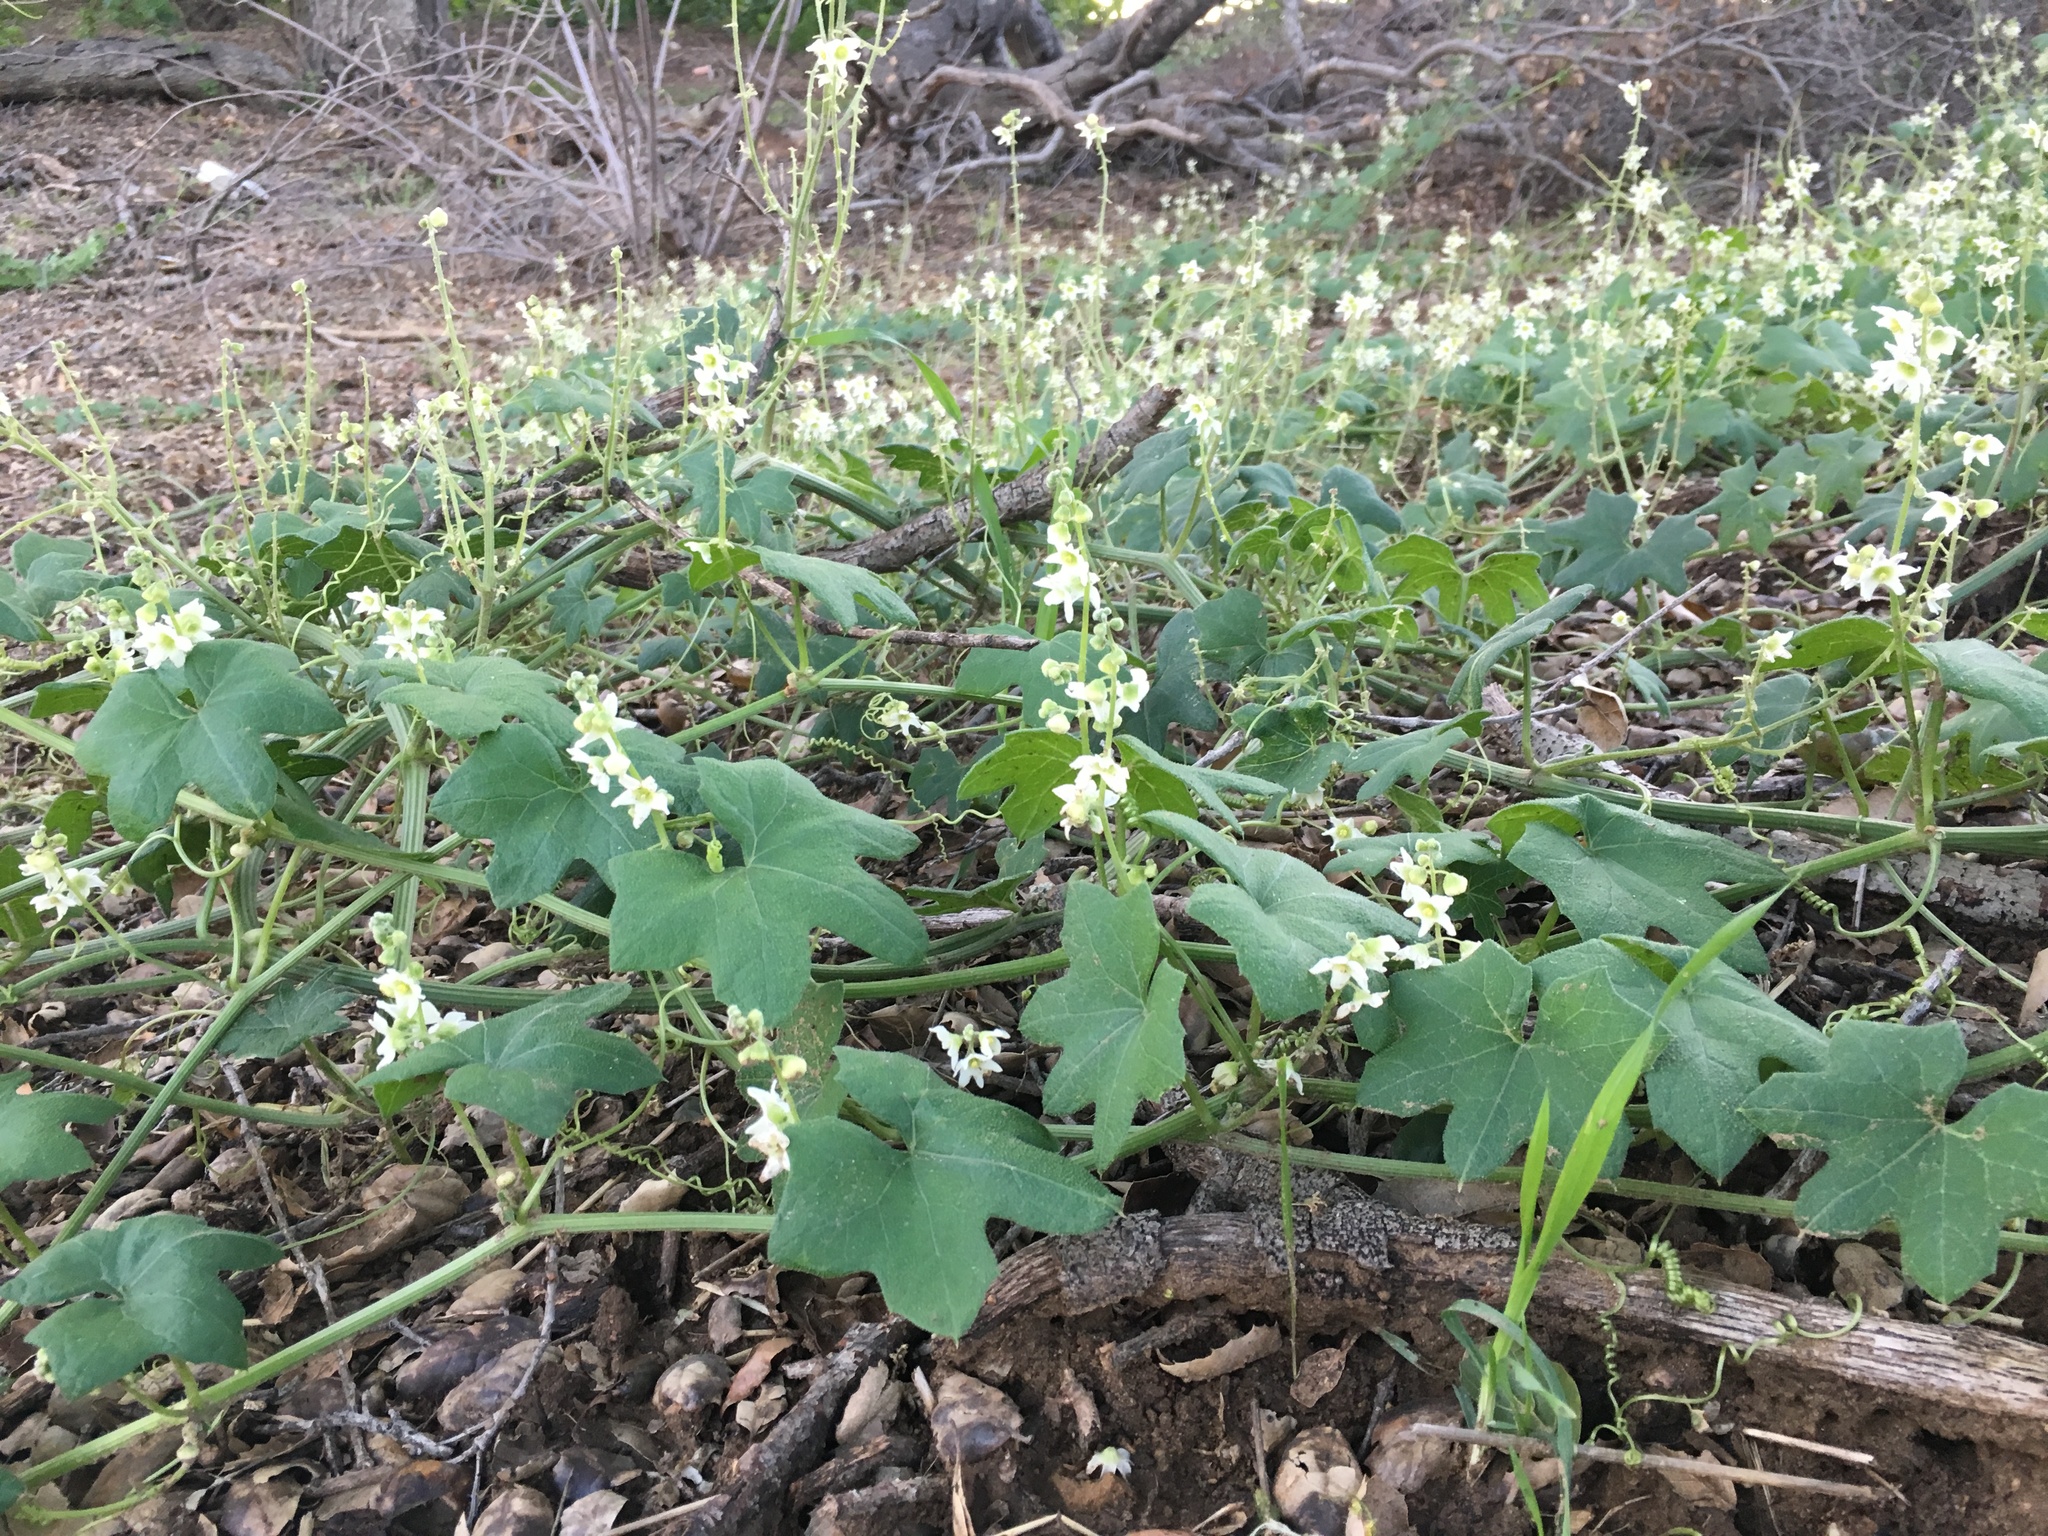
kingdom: Plantae
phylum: Tracheophyta
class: Magnoliopsida
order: Cucurbitales
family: Cucurbitaceae
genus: Marah
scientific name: Marah macrocarpa
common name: Cucamonga manroot
